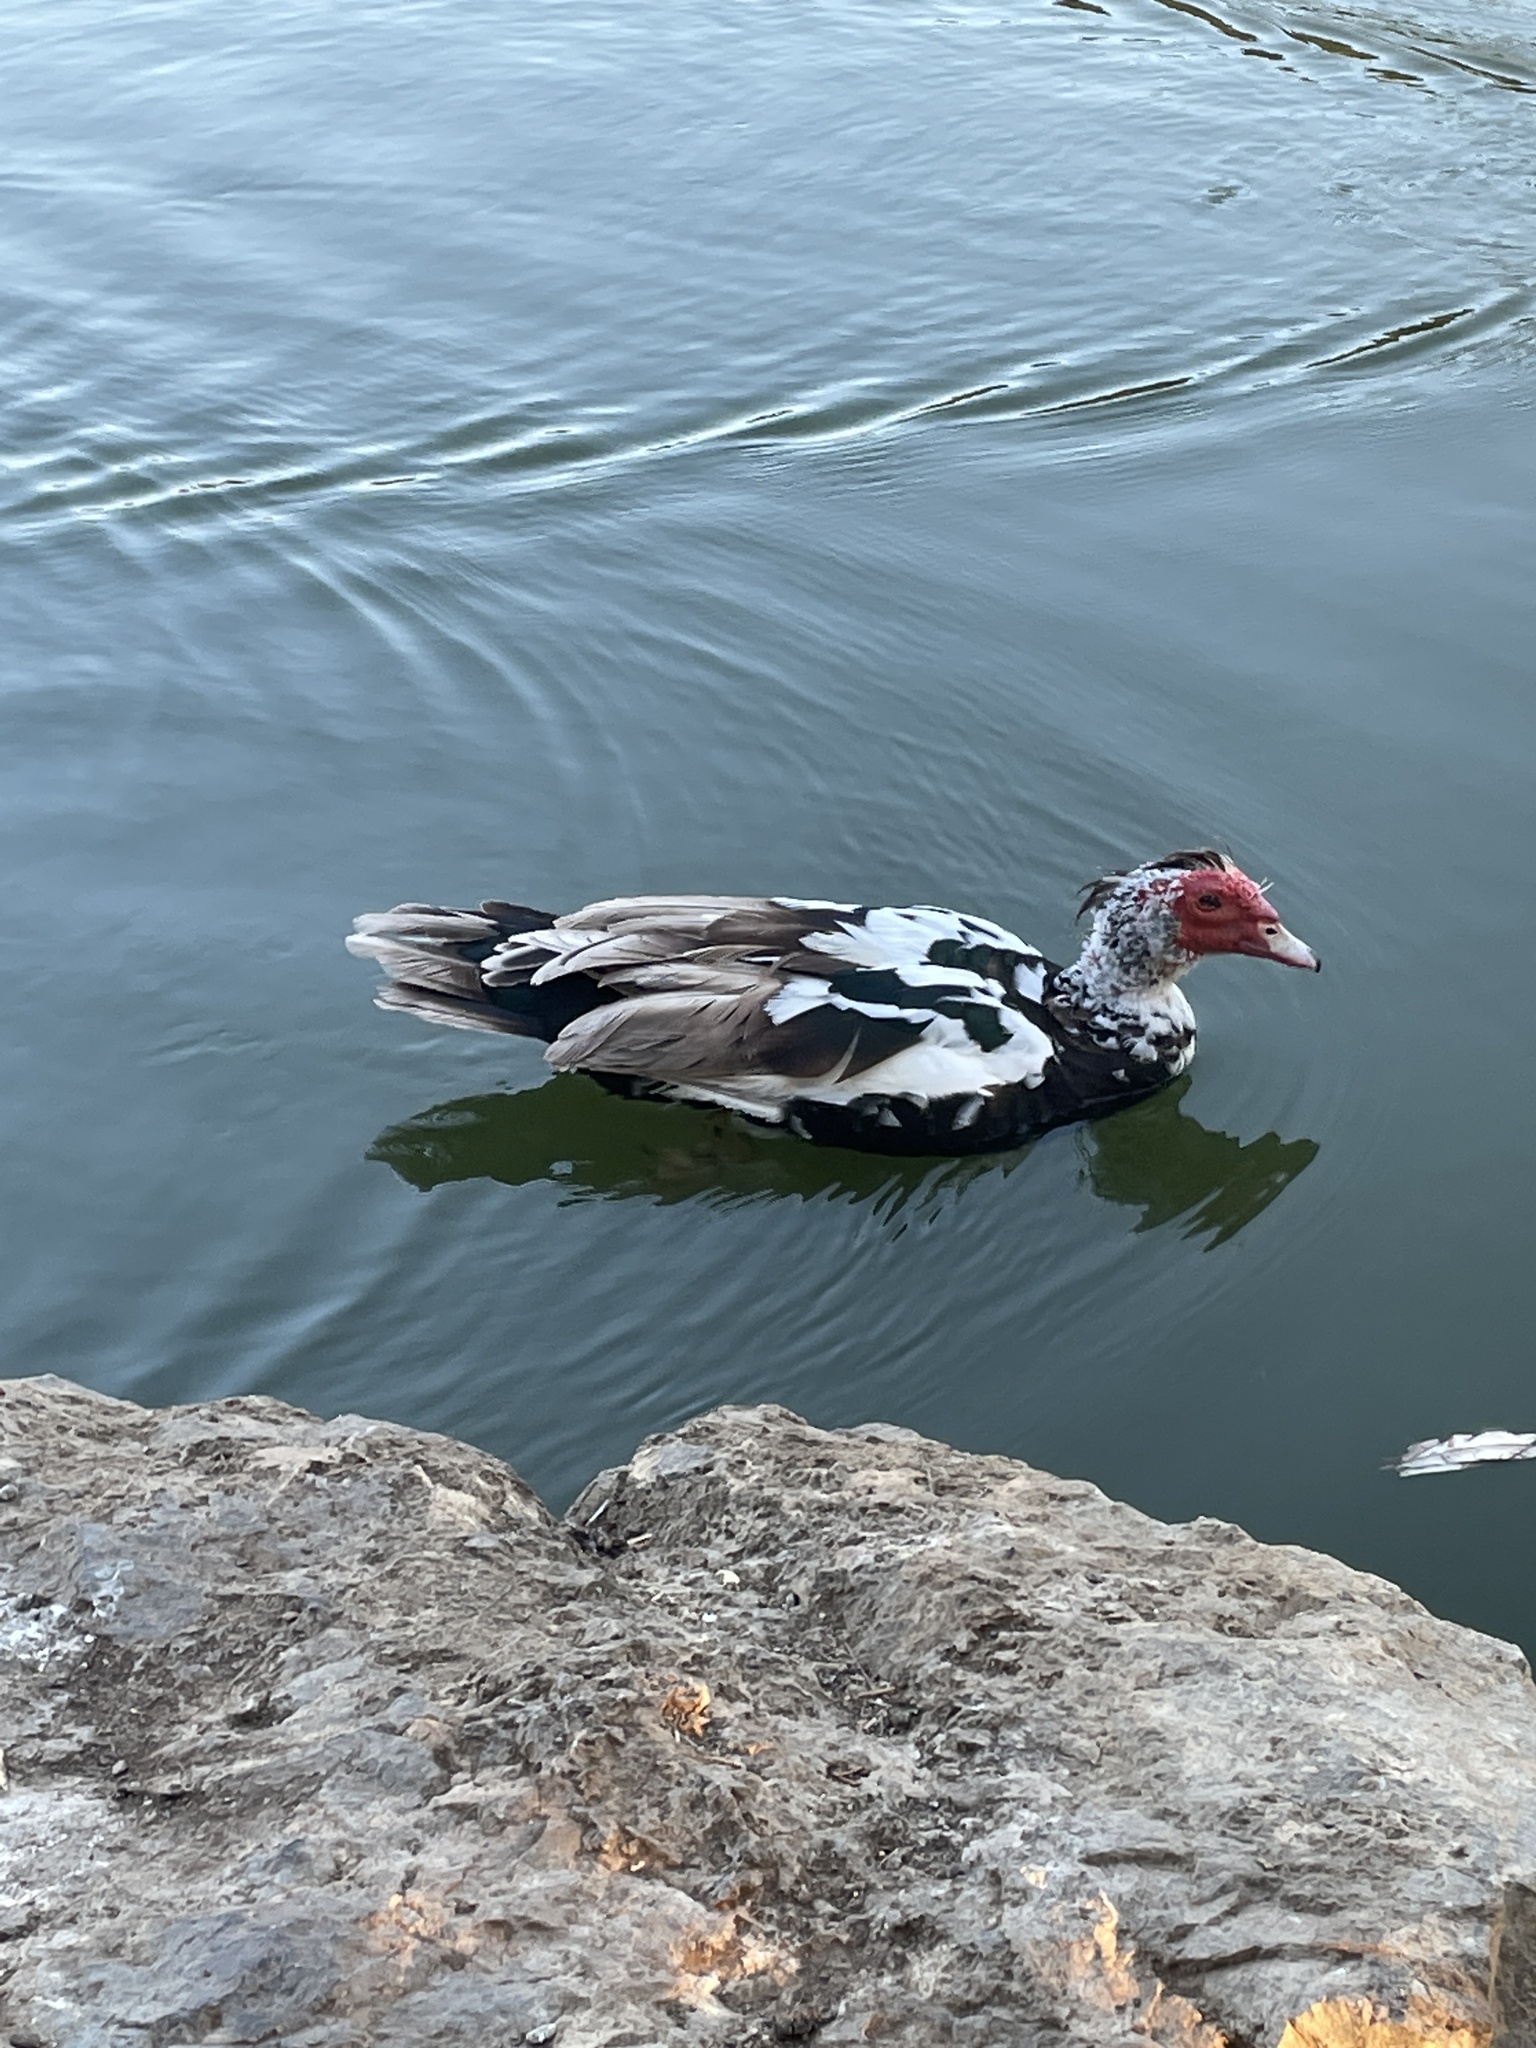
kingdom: Animalia
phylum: Chordata
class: Aves
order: Anseriformes
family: Anatidae
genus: Cairina
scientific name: Cairina moschata
